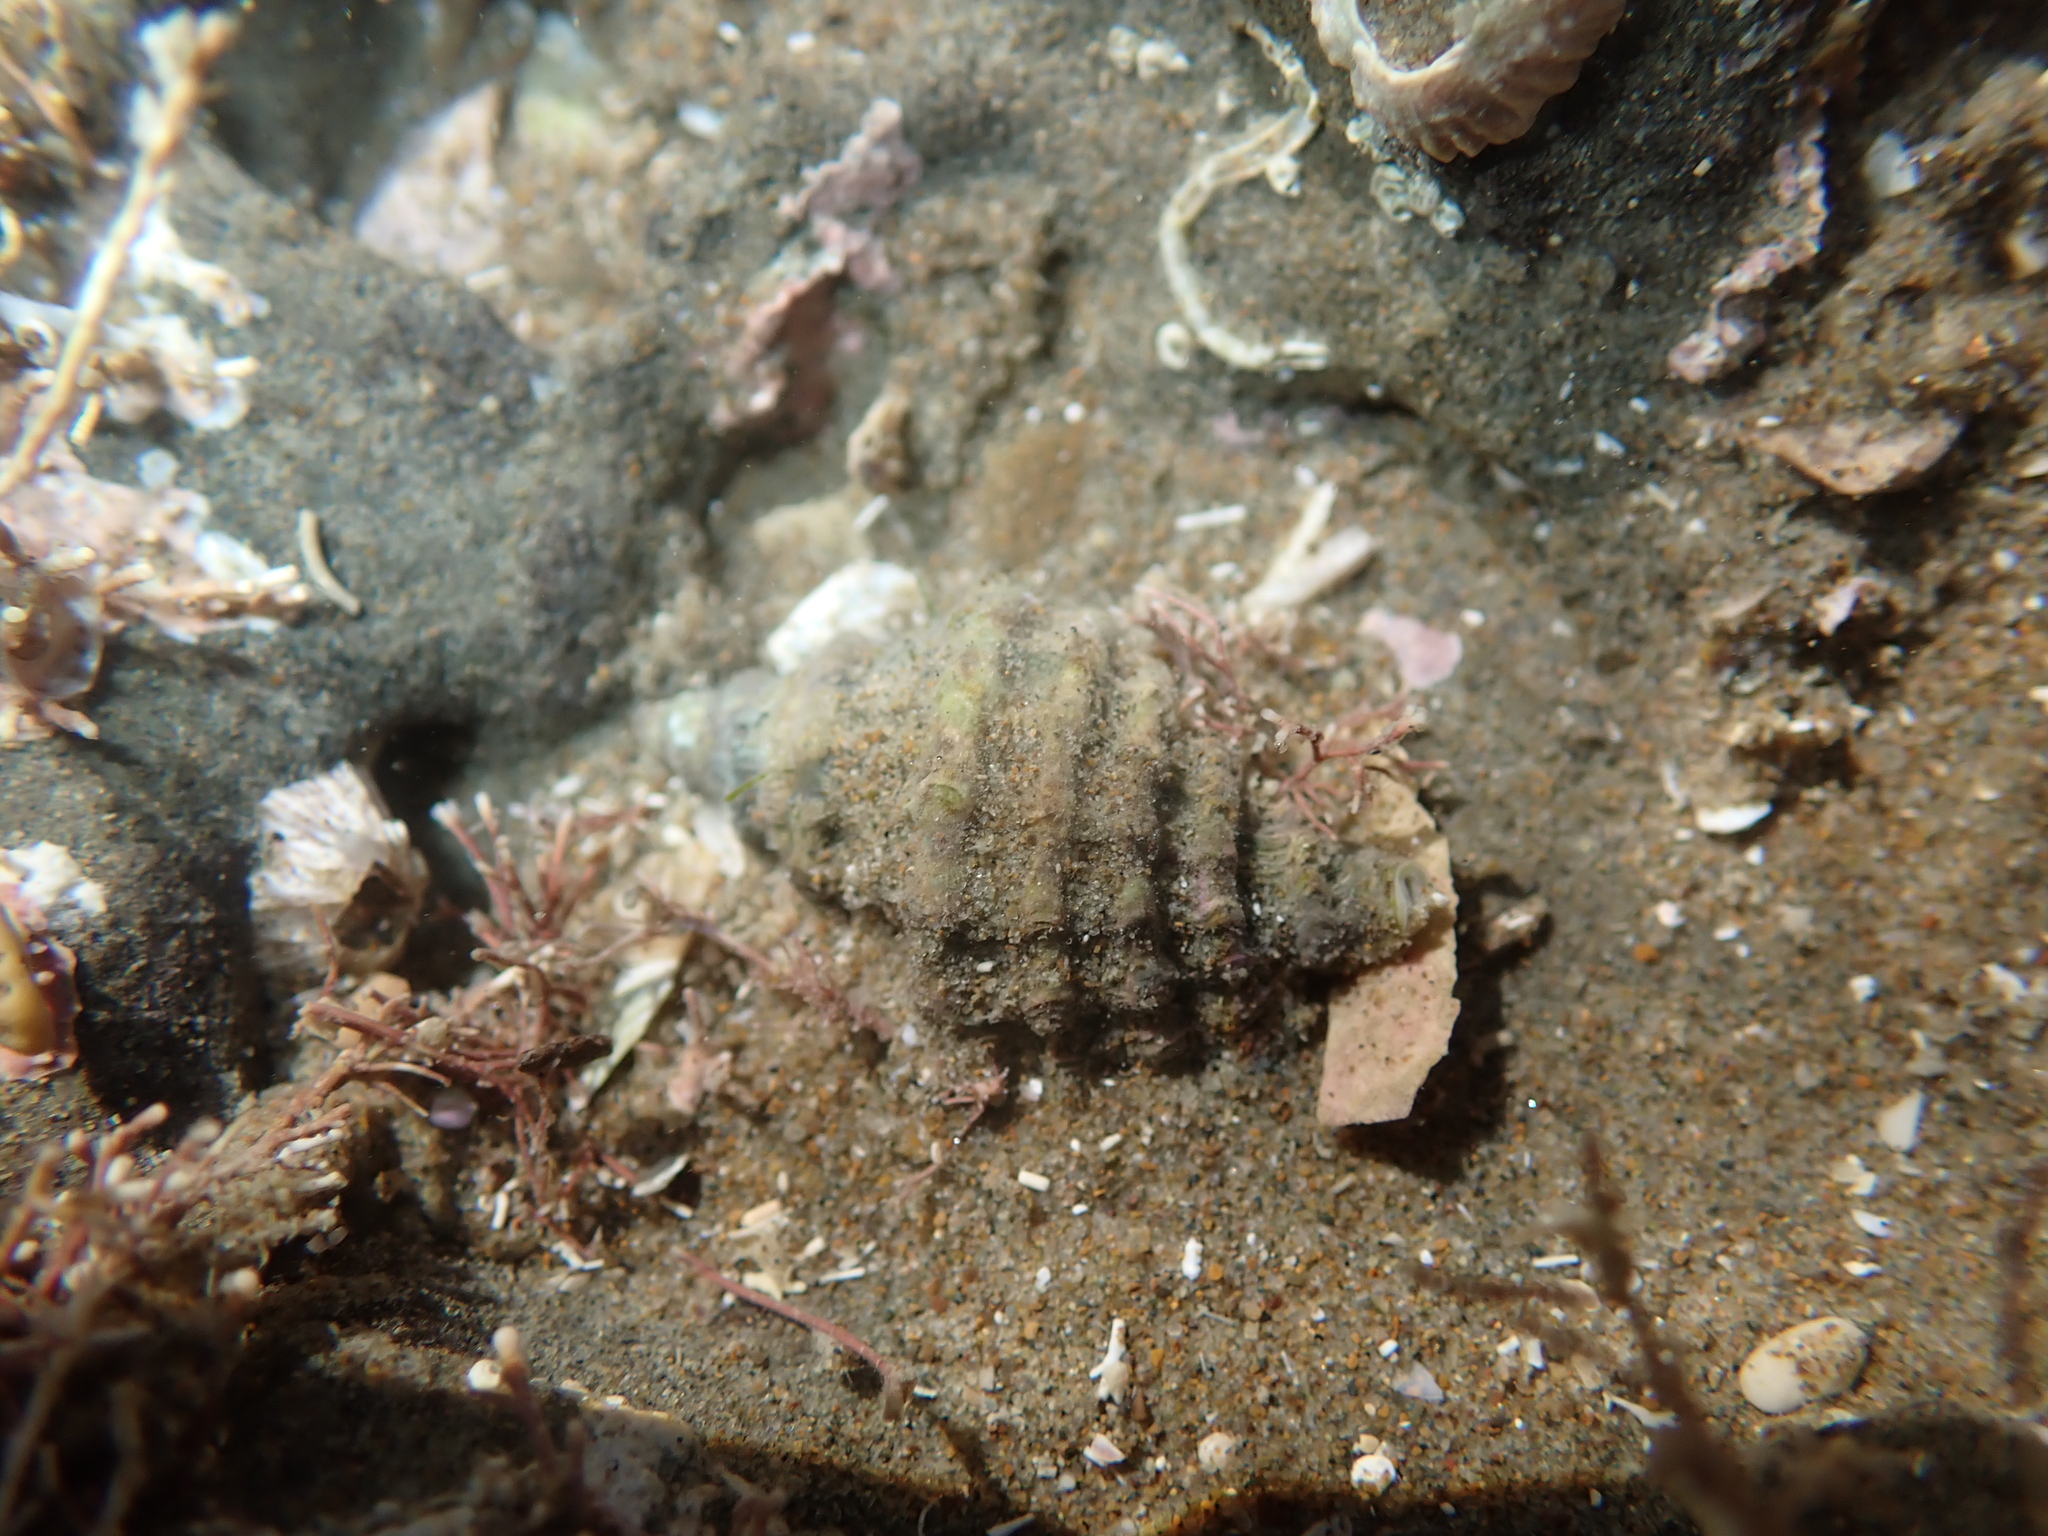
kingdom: Animalia
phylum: Mollusca
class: Gastropoda
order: Neogastropoda
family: Muricidae
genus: Paratrophon
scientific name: Paratrophon quoyi
